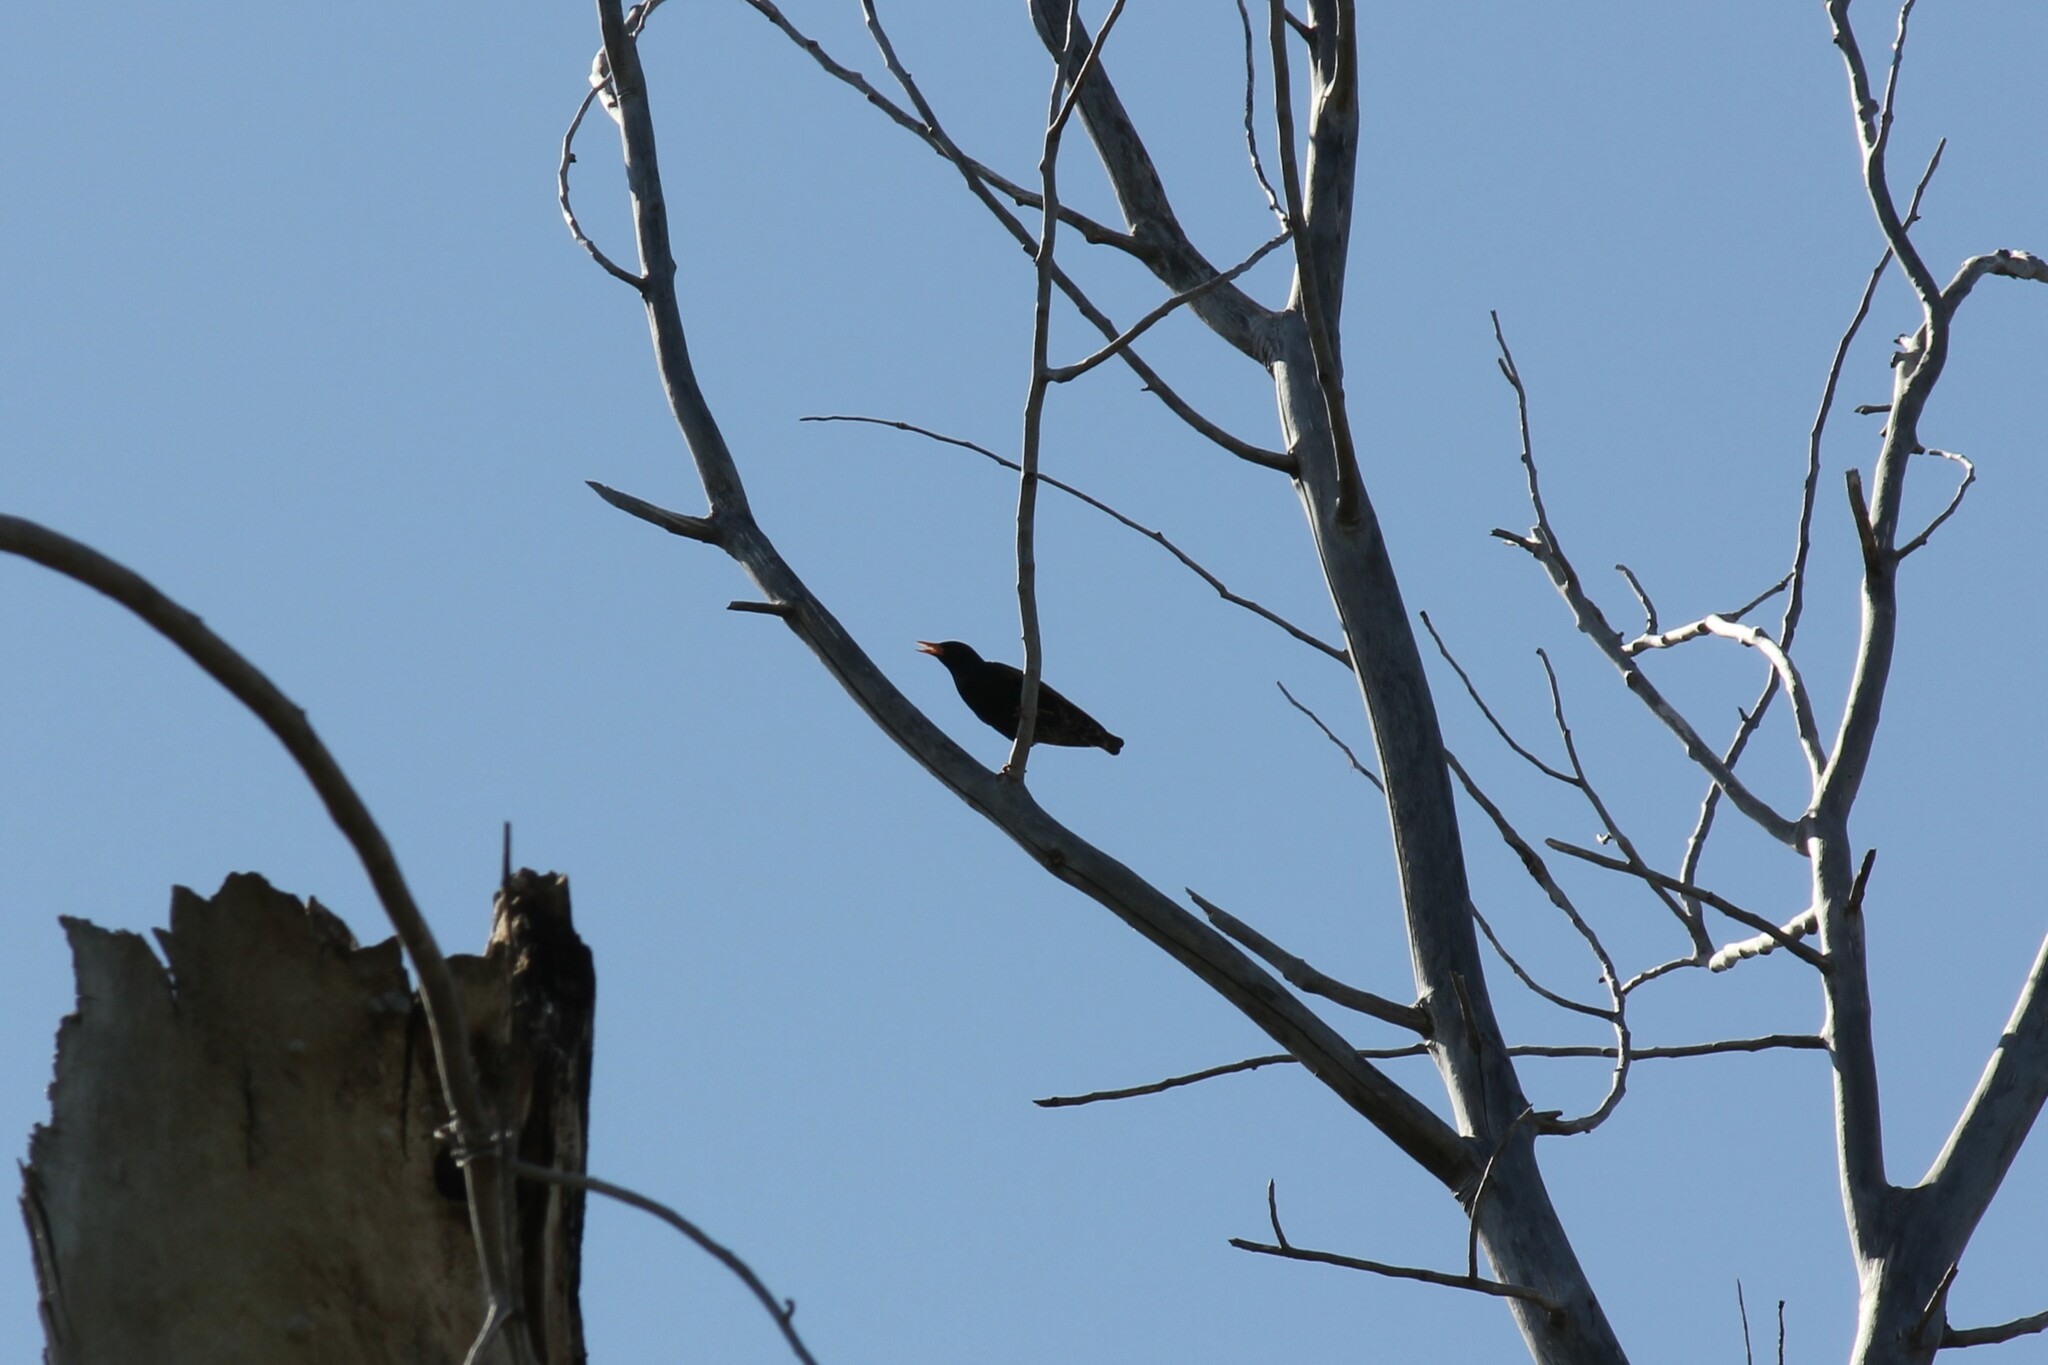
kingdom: Animalia
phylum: Chordata
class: Aves
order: Passeriformes
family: Sturnidae
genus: Sturnus
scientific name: Sturnus vulgaris
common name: Common starling
